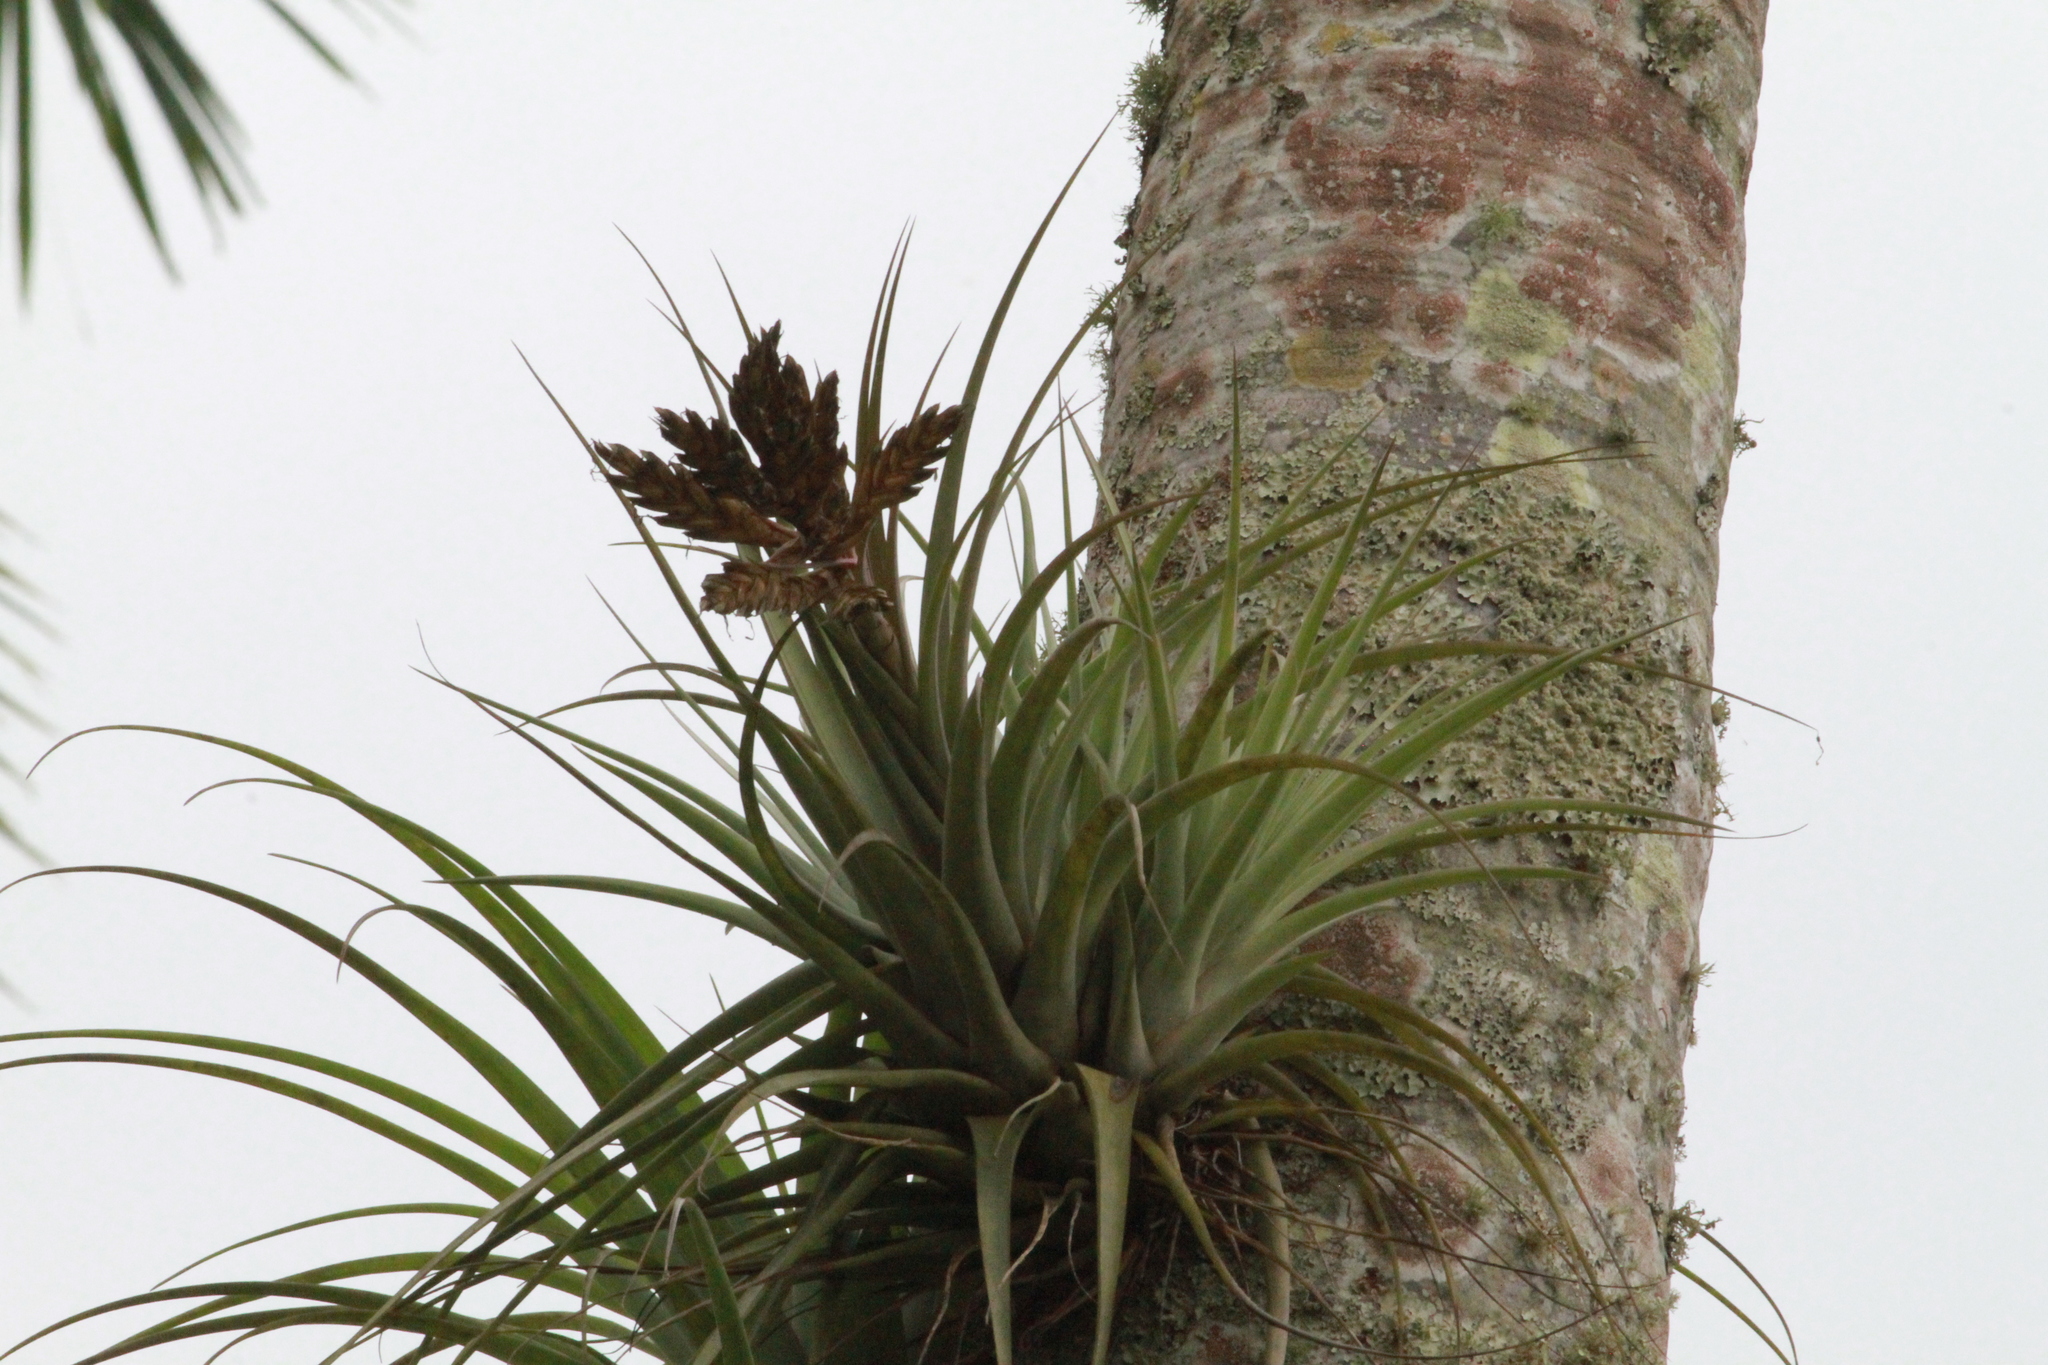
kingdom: Plantae
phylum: Tracheophyta
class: Liliopsida
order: Poales
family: Bromeliaceae
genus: Tillandsia
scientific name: Tillandsia fasciculata
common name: Giant airplant
